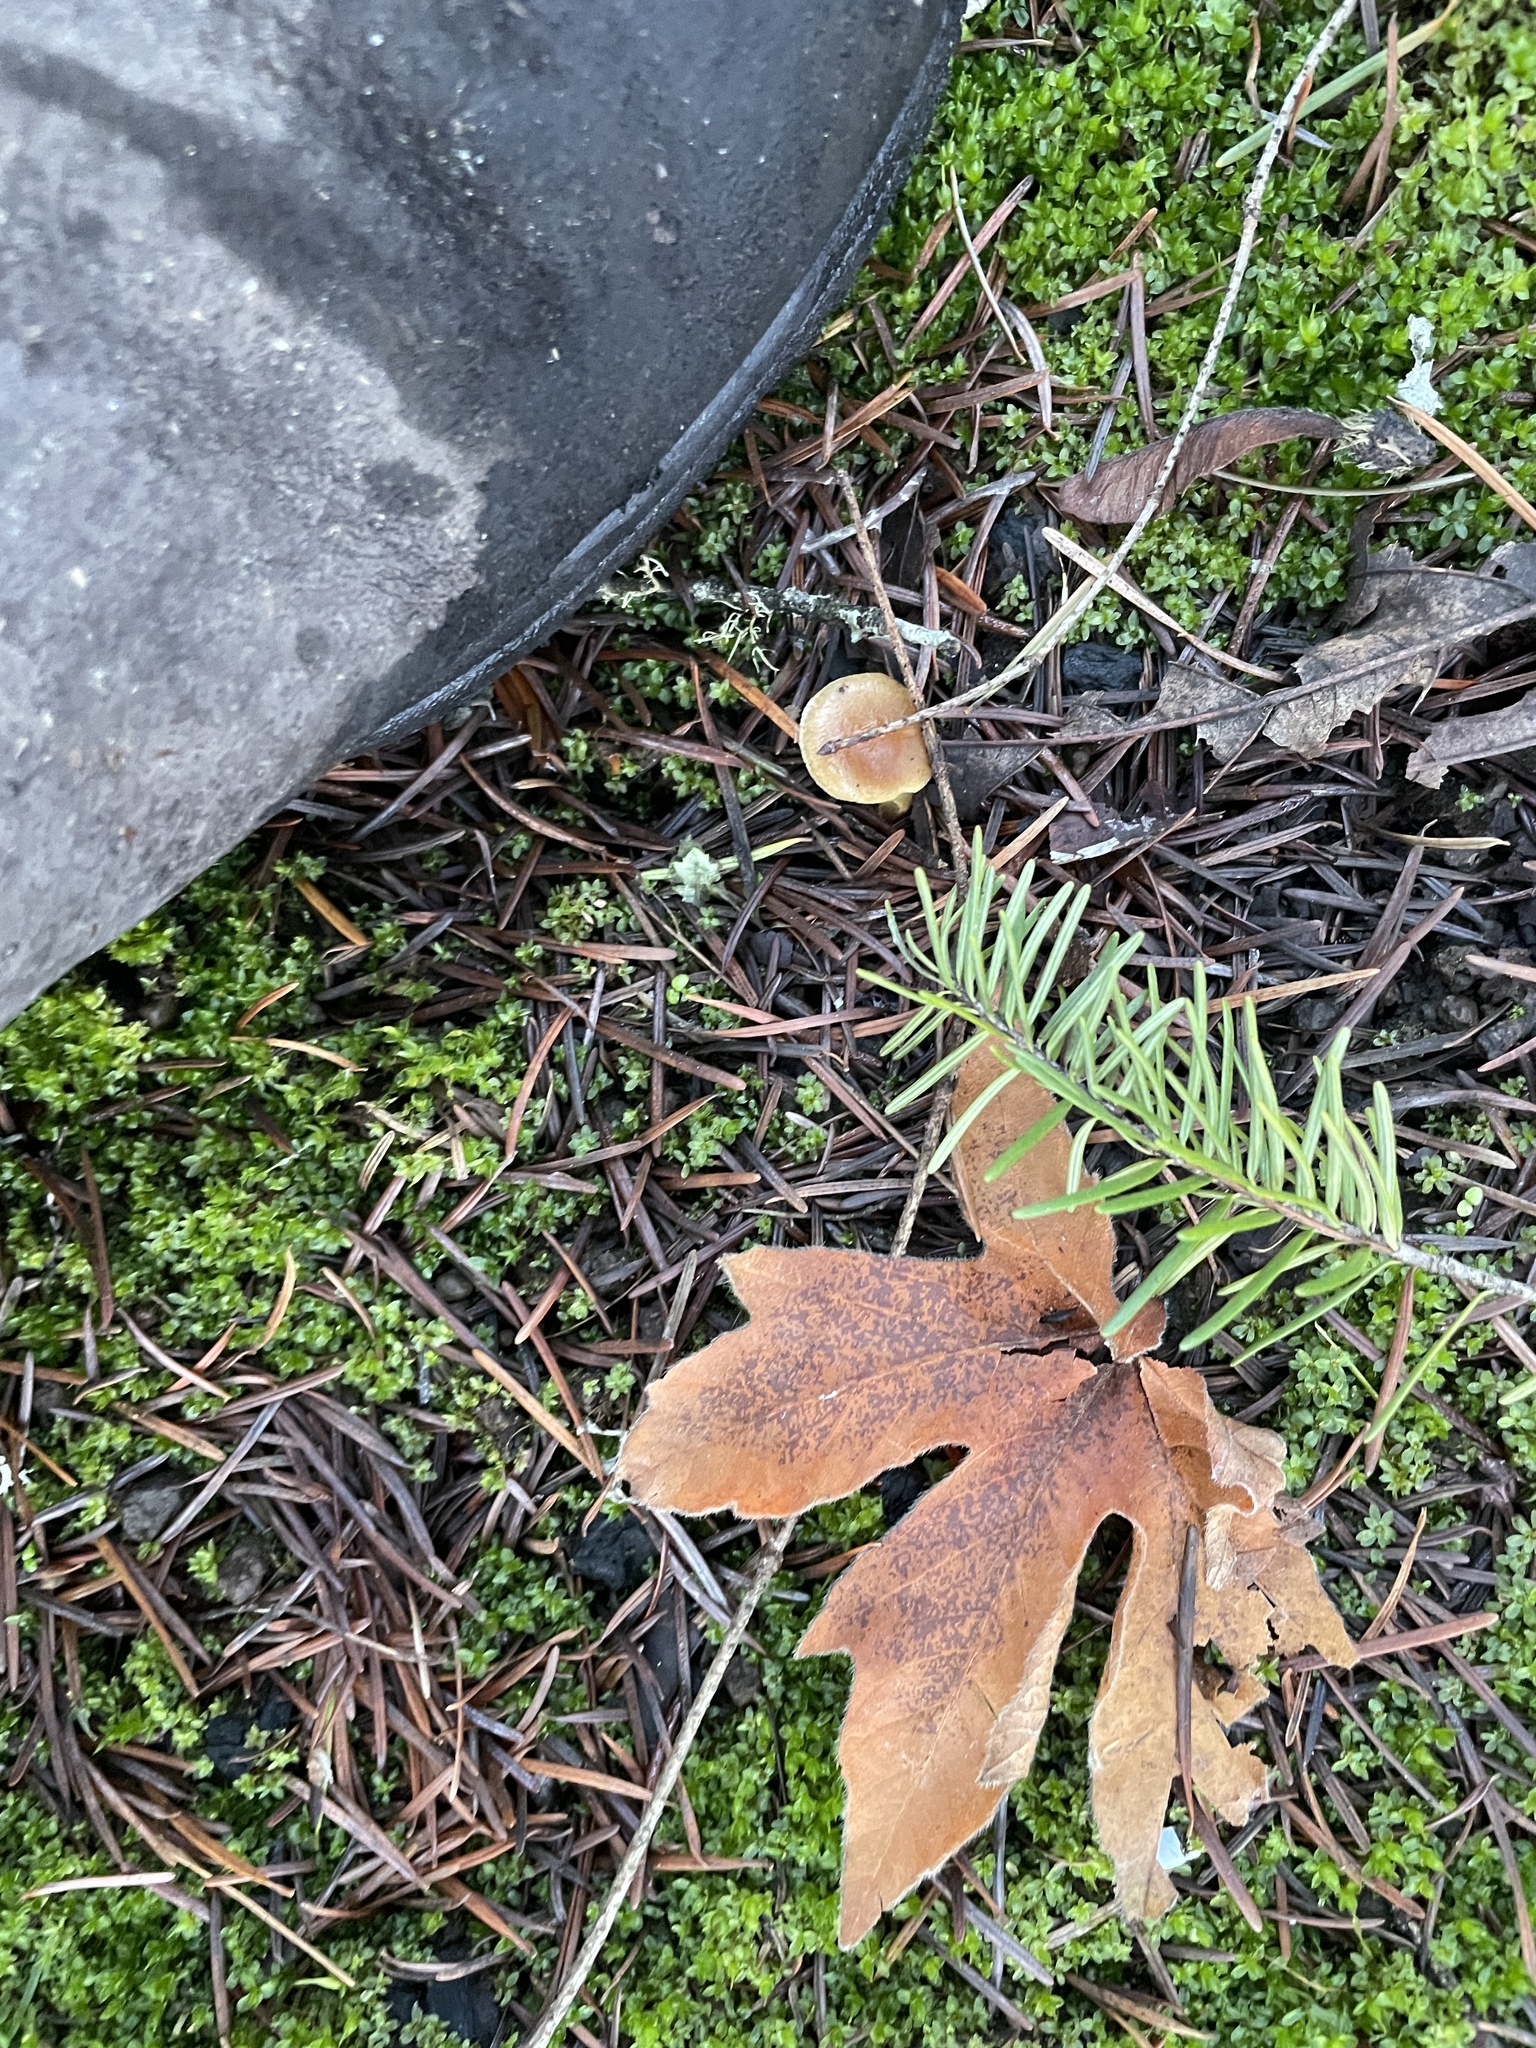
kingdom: Plantae
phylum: Tracheophyta
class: Magnoliopsida
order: Sapindales
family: Sapindaceae
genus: Acer
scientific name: Acer macrophyllum
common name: Oregon maple
